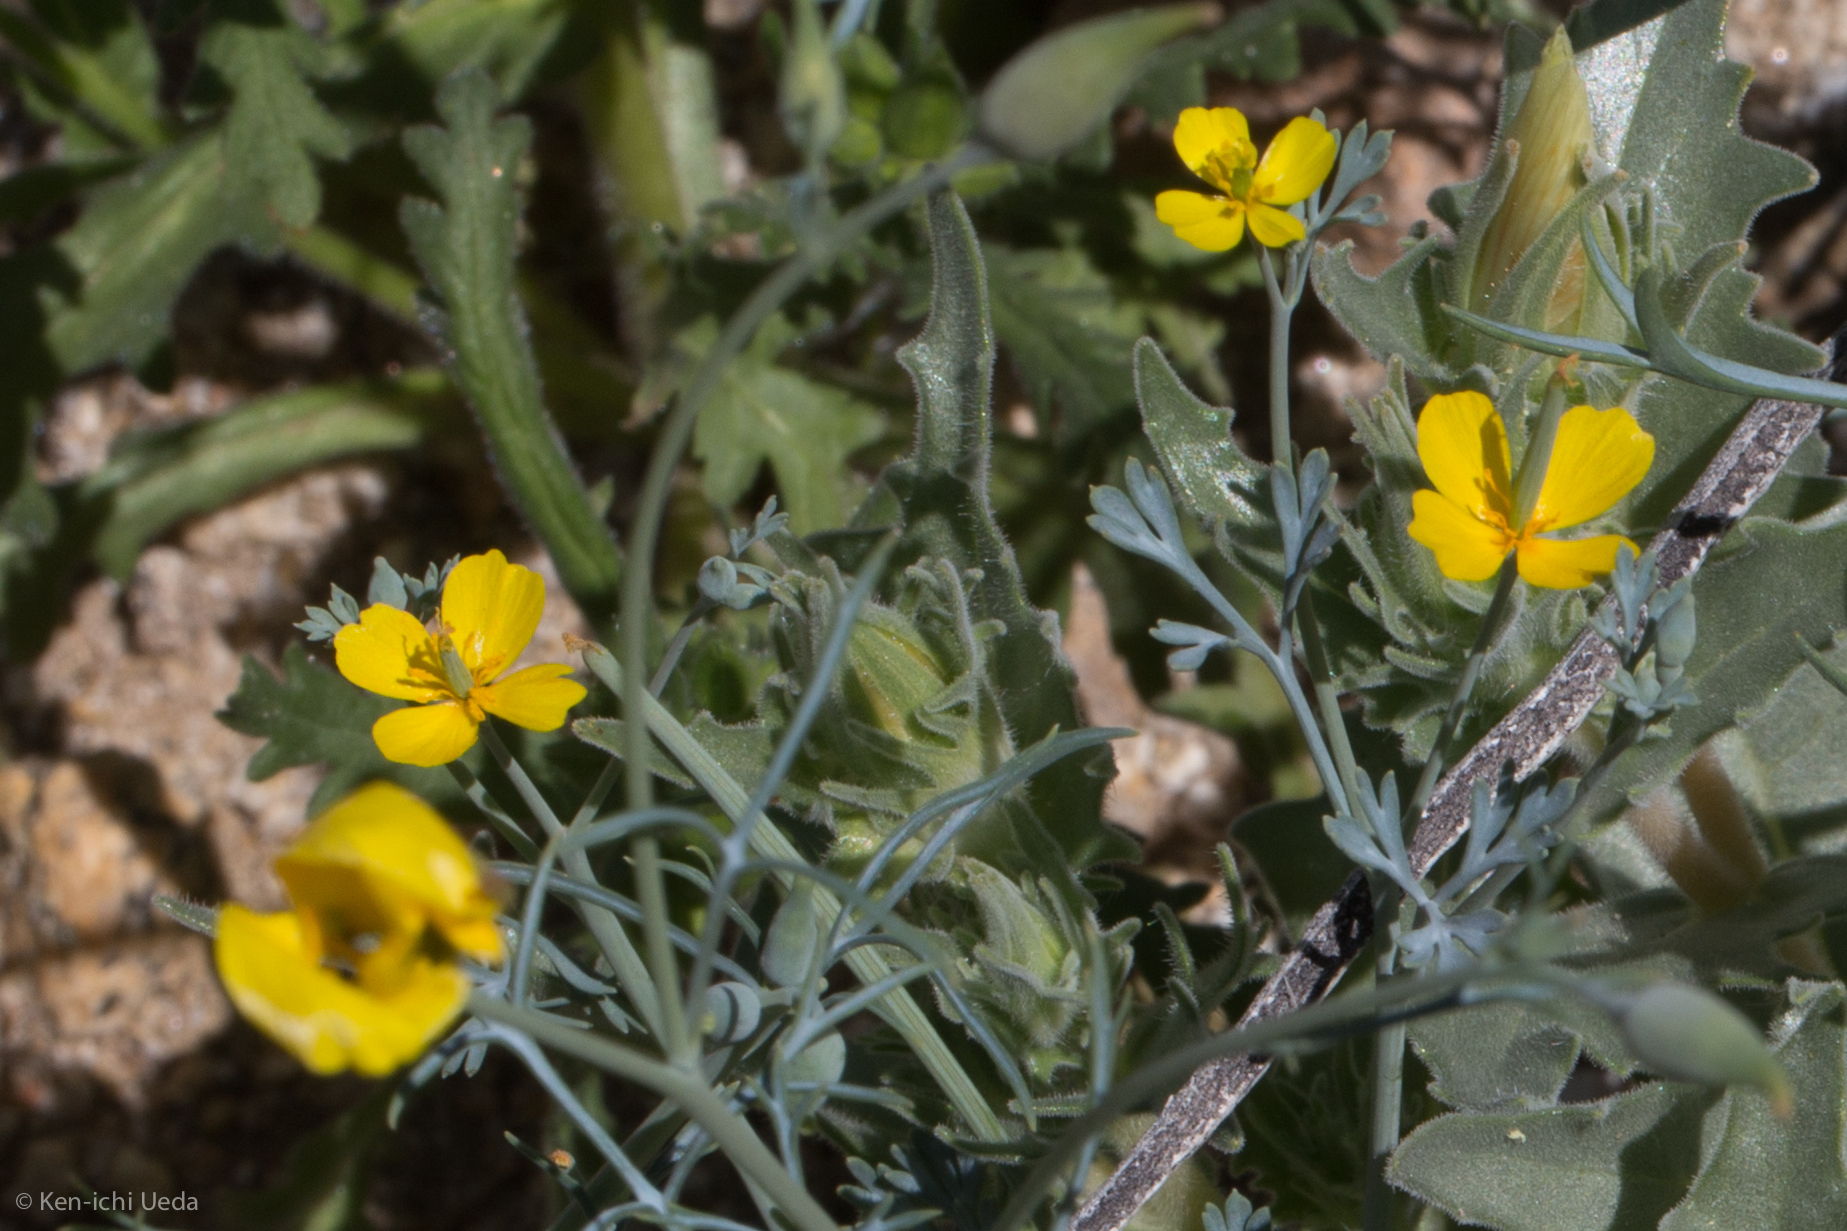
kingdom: Plantae
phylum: Tracheophyta
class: Magnoliopsida
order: Ranunculales
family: Papaveraceae
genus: Eschscholzia
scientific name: Eschscholzia minutiflora
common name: Small-flower california-poppy
